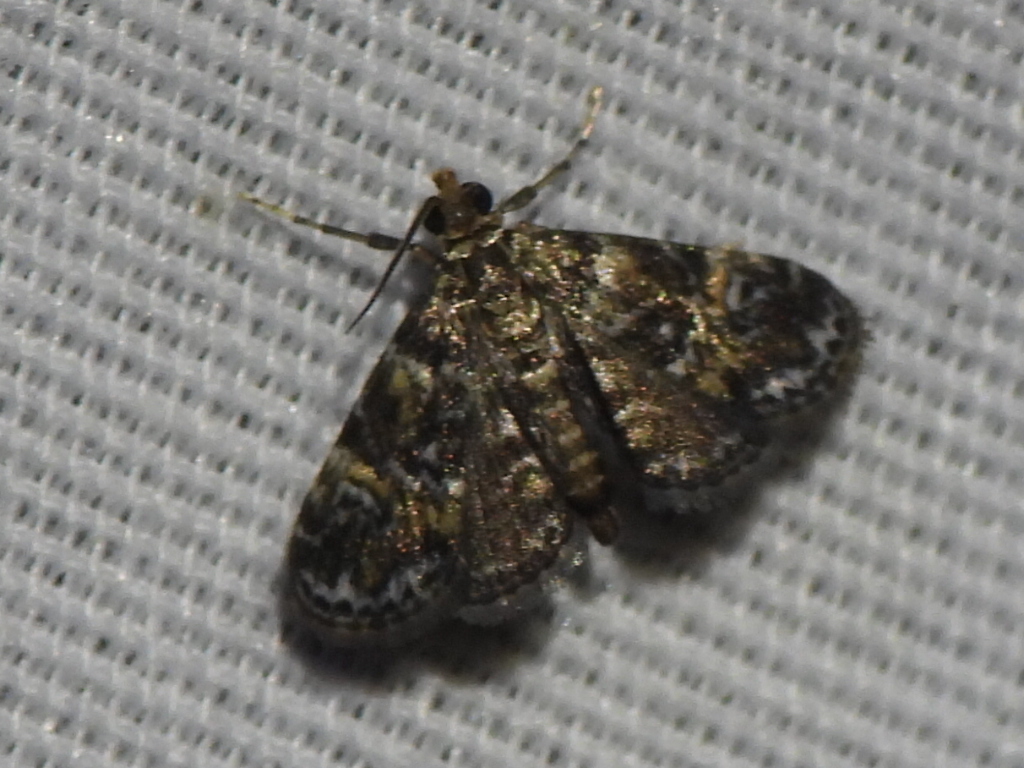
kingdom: Animalia
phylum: Arthropoda
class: Insecta
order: Lepidoptera
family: Crambidae
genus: Elophila
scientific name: Elophila obliteralis
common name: Waterlily leafcutter moth
